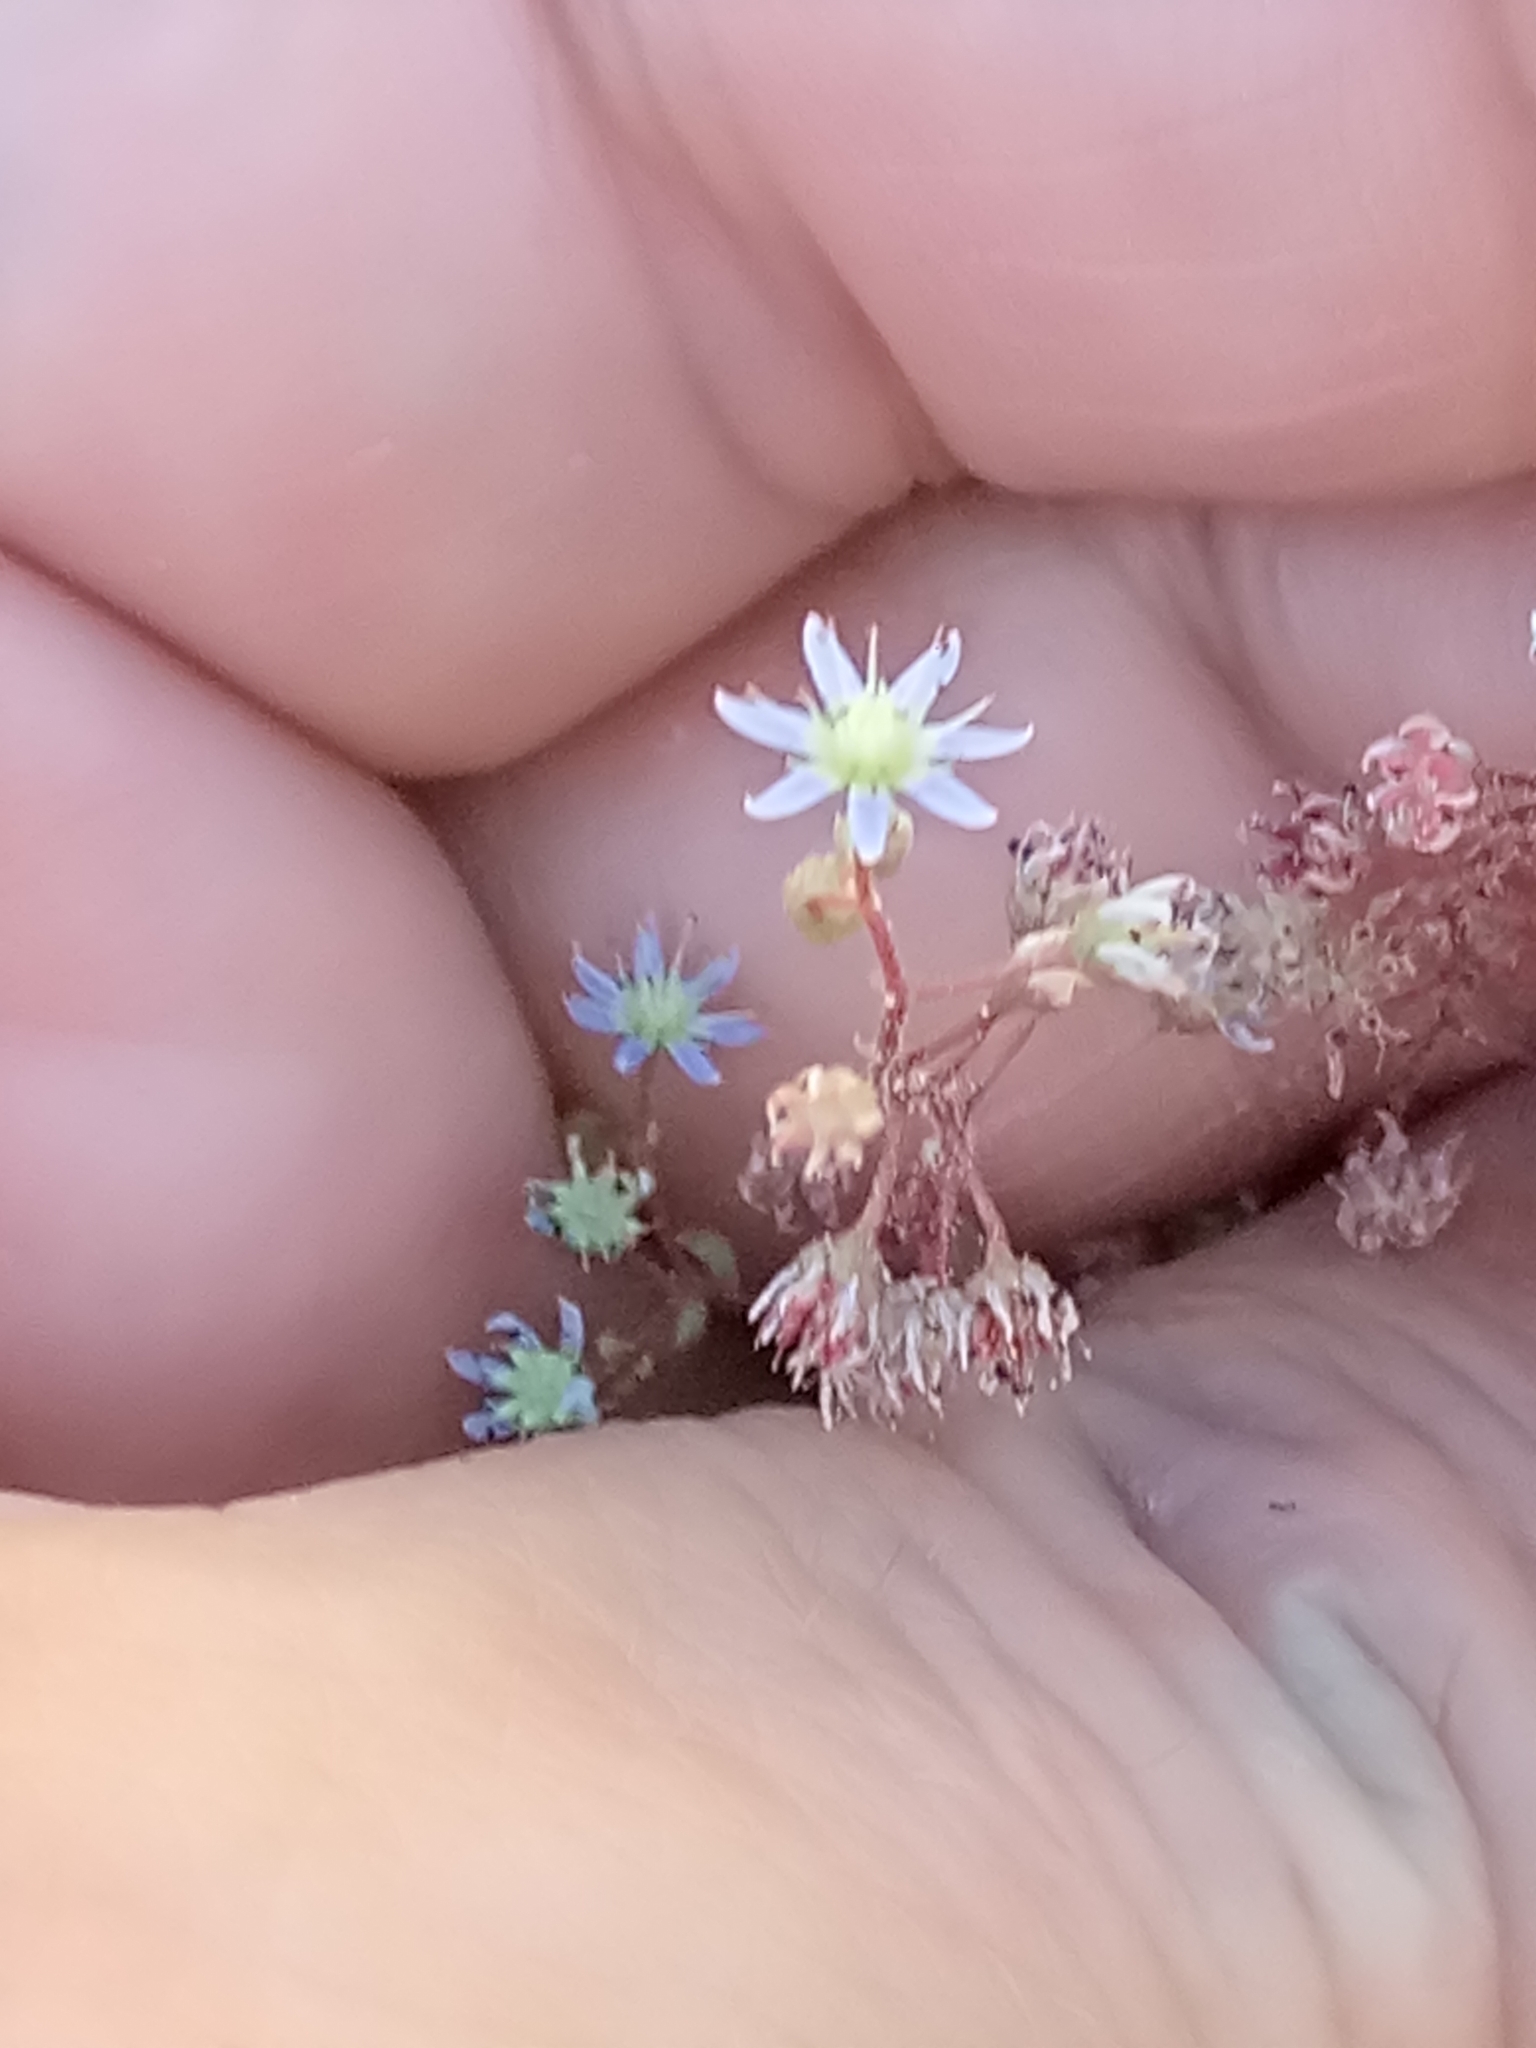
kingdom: Plantae
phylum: Tracheophyta
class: Magnoliopsida
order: Saxifragales
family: Crassulaceae
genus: Sedum
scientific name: Sedum caeruleum
